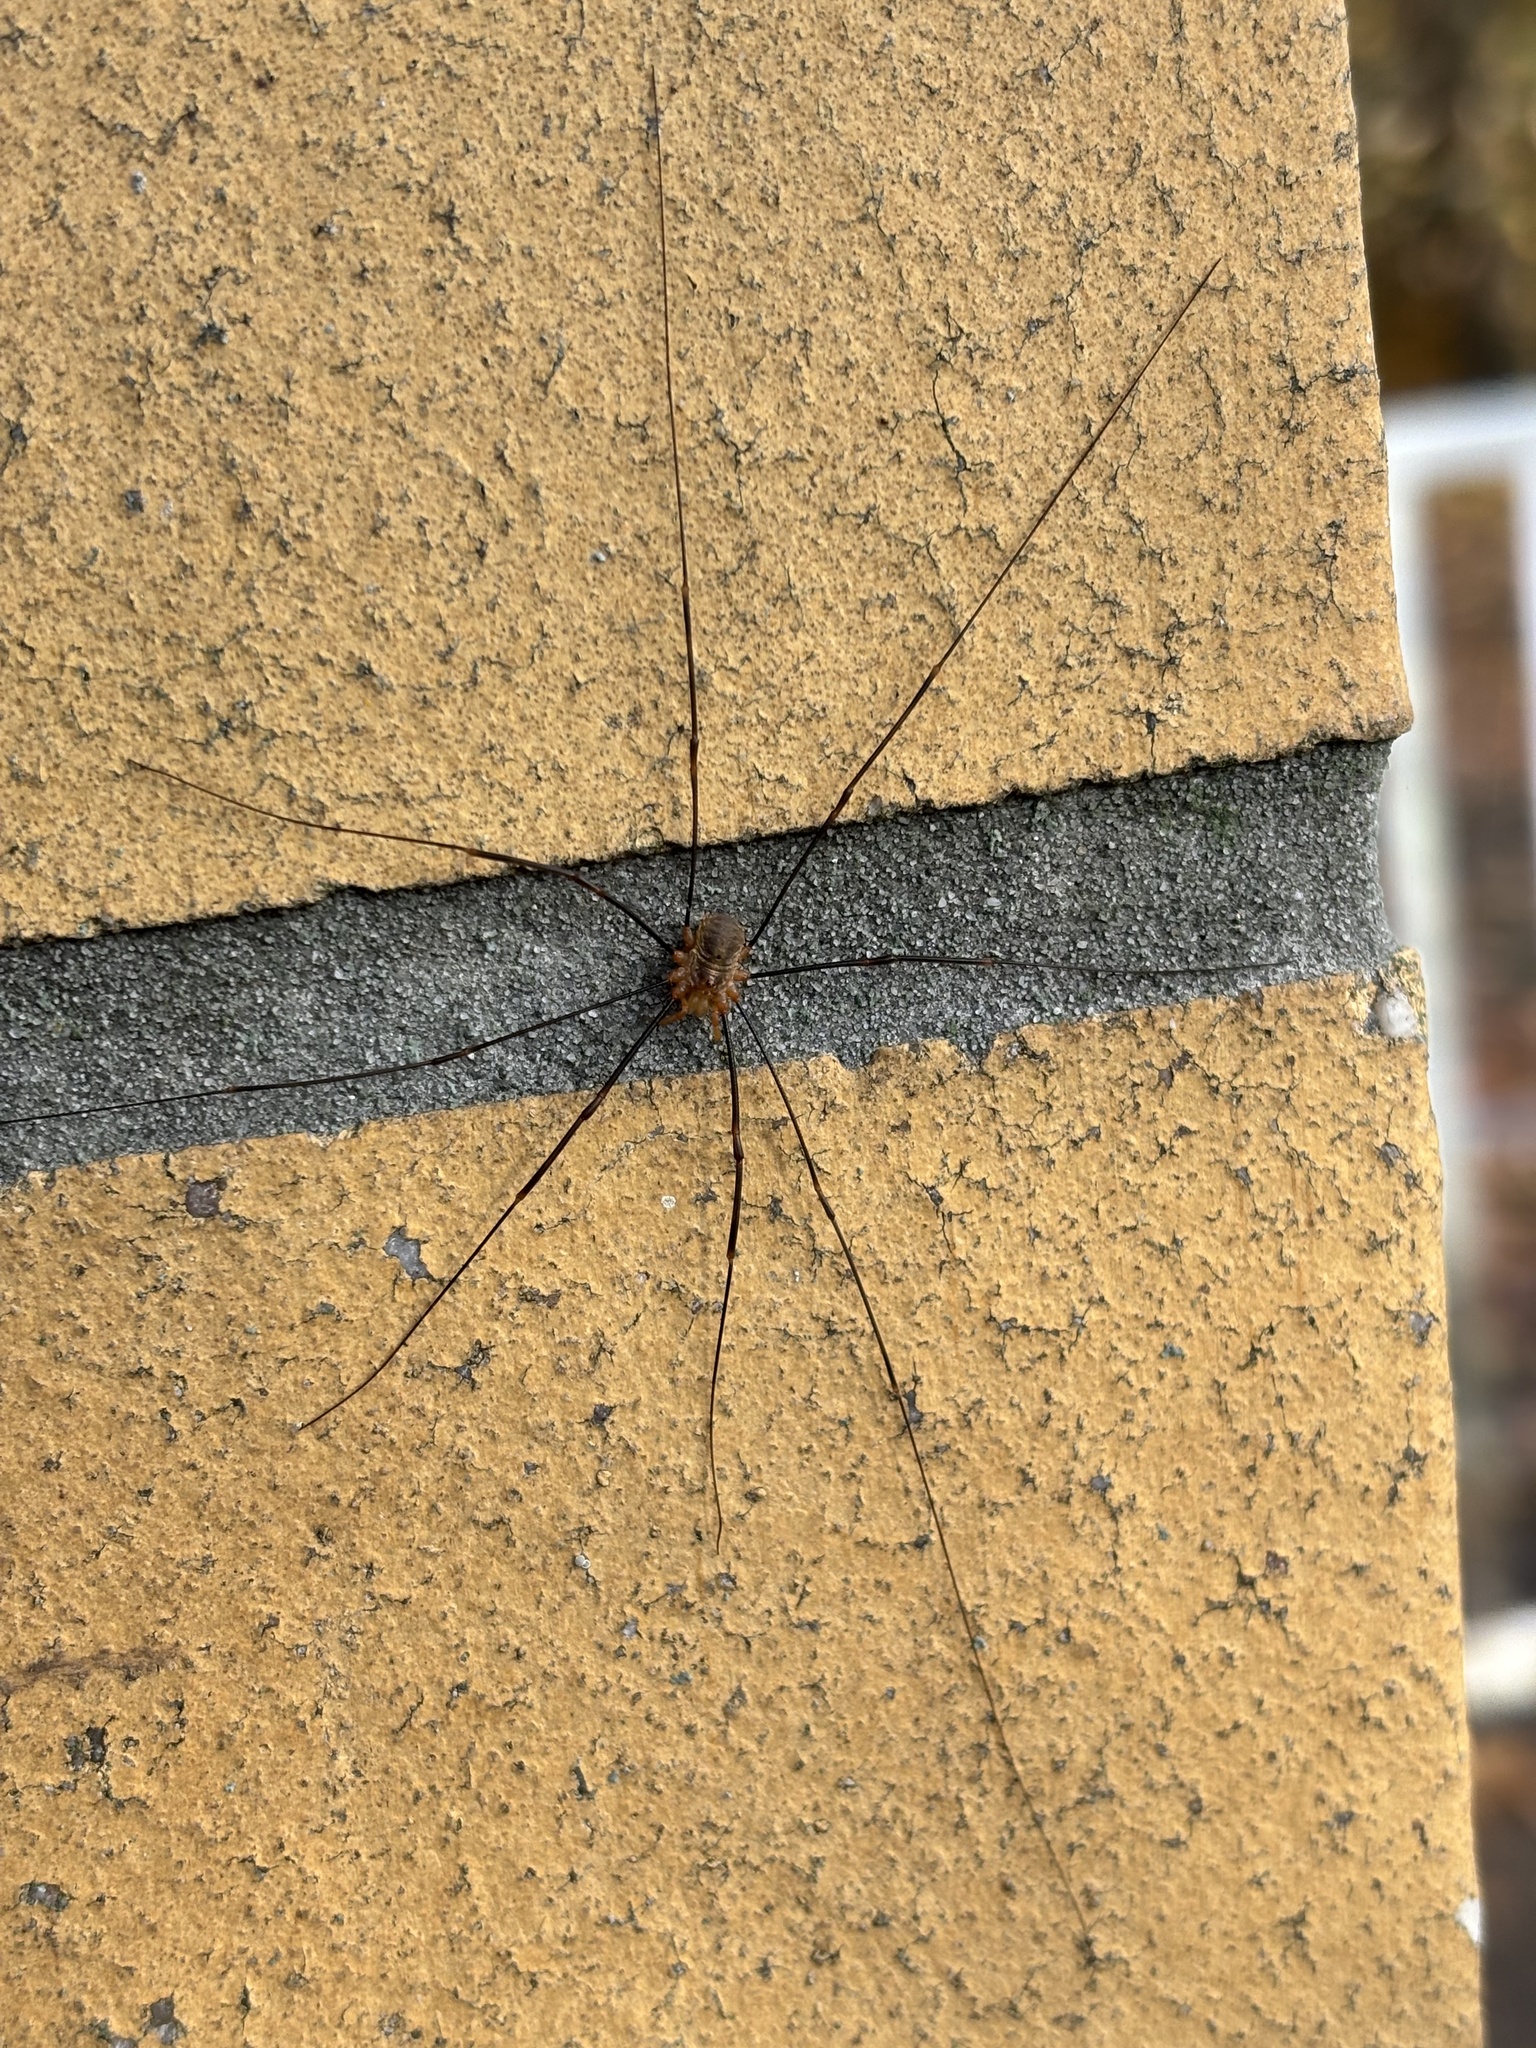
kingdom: Animalia
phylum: Arthropoda
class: Arachnida
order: Opiliones
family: Phalangiidae
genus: Opilio
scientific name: Opilio canestrinii
